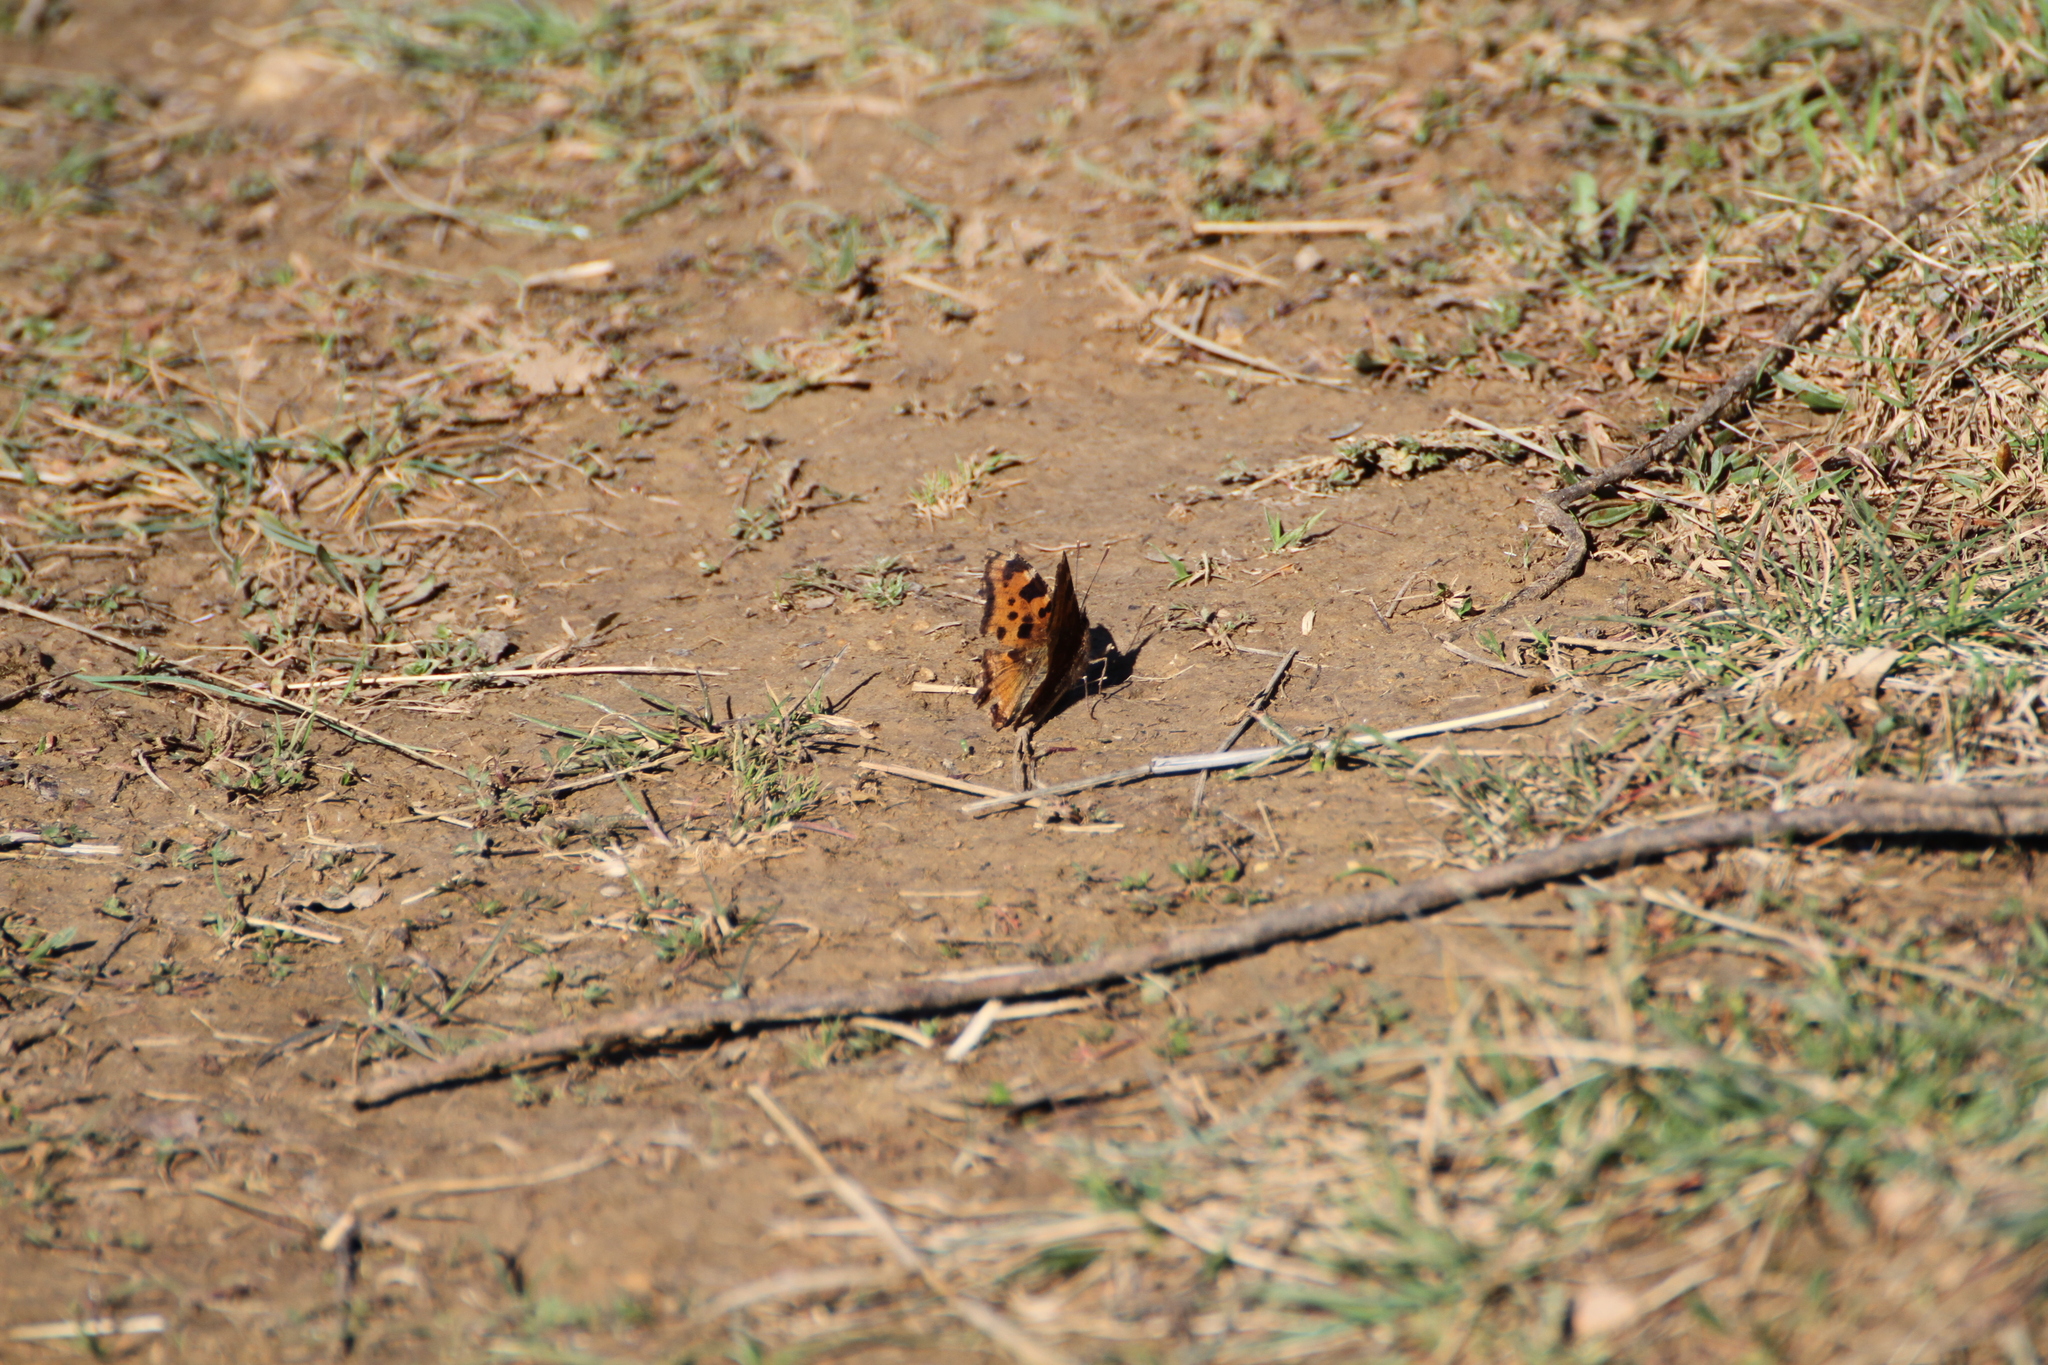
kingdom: Animalia
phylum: Arthropoda
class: Insecta
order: Lepidoptera
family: Nymphalidae
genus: Nymphalis
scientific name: Nymphalis polychloros
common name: Large tortoiseshell
